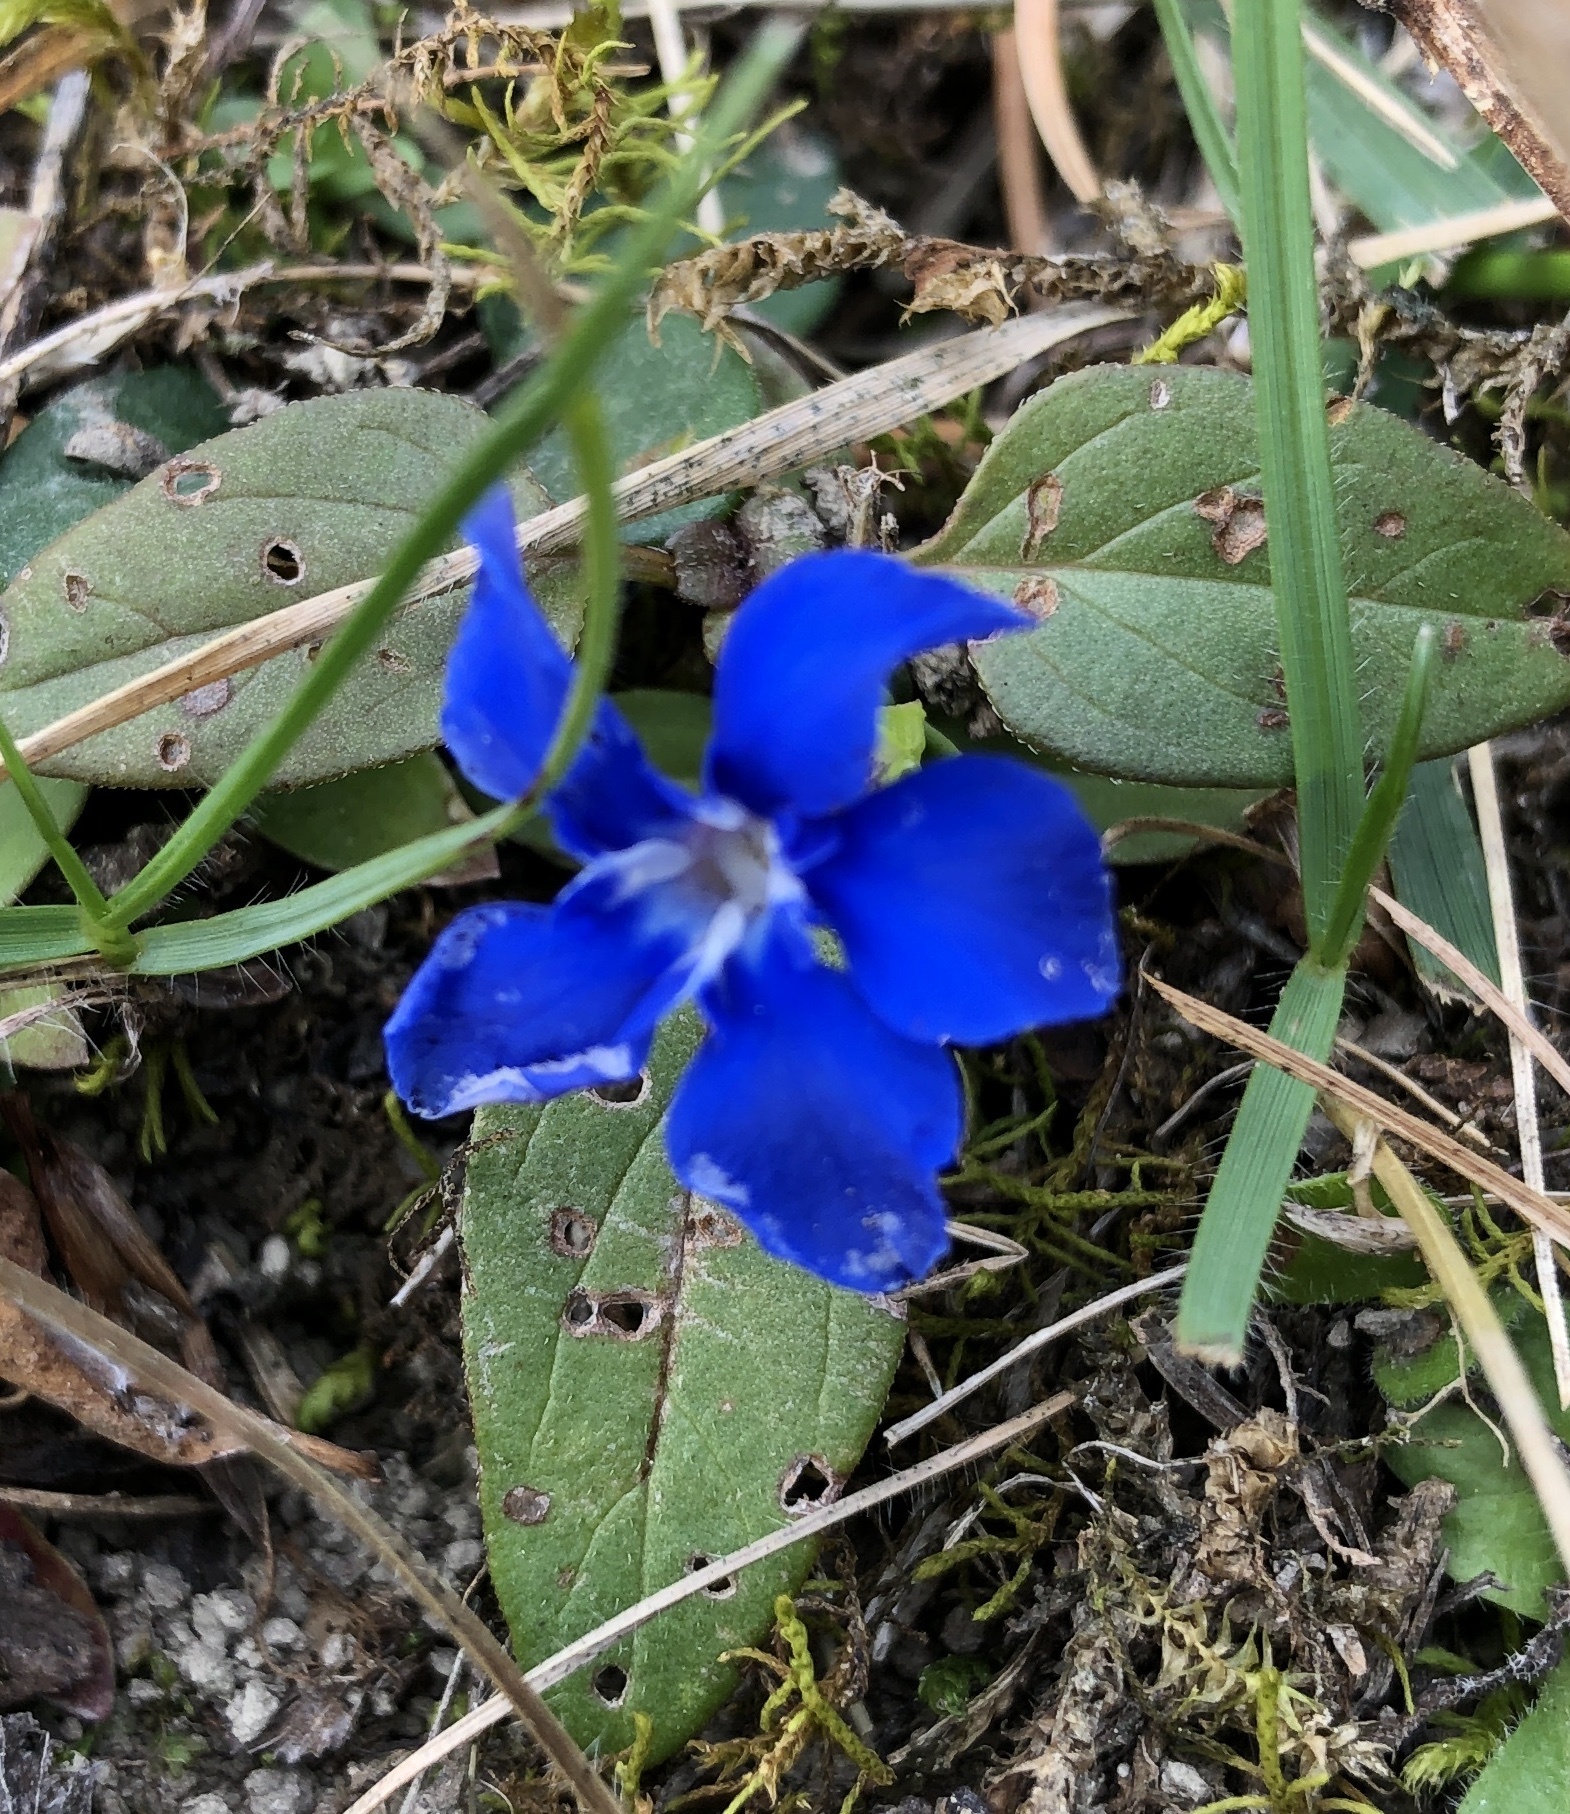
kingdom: Plantae
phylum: Tracheophyta
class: Magnoliopsida
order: Gentianales
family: Gentianaceae
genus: Gentiana
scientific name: Gentiana verna
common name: Spring gentian
